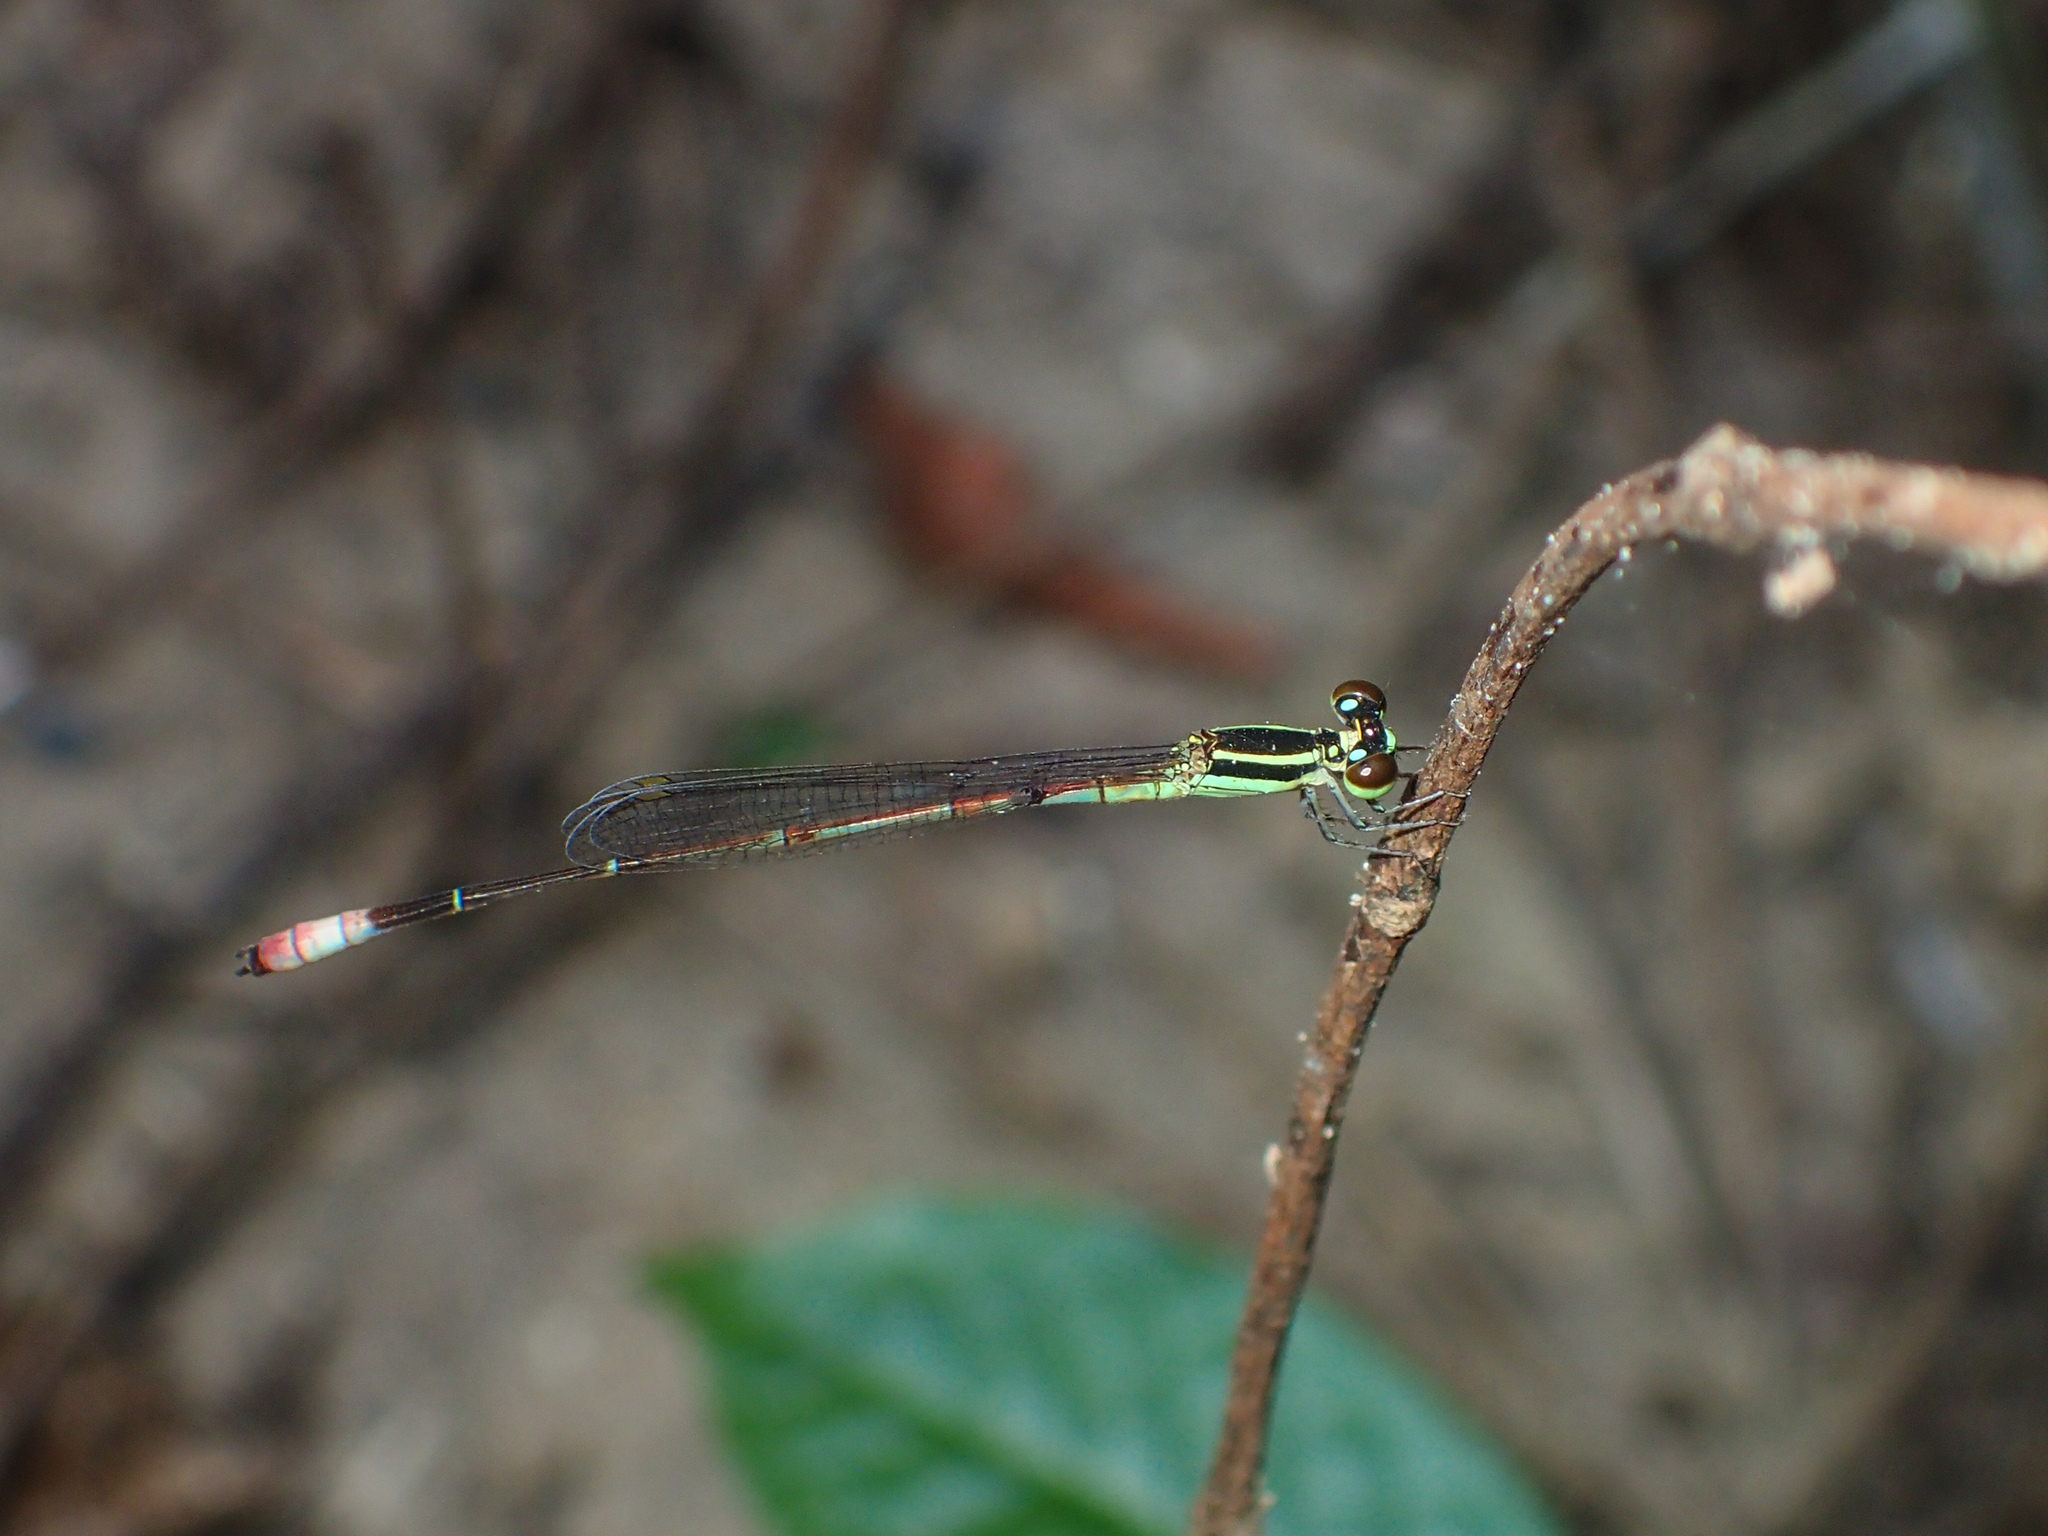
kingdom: Animalia
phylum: Arthropoda
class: Insecta
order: Odonata
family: Coenagrionidae
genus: Argiocnemis
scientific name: Argiocnemis rubescens
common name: Red-tipped shadefly
